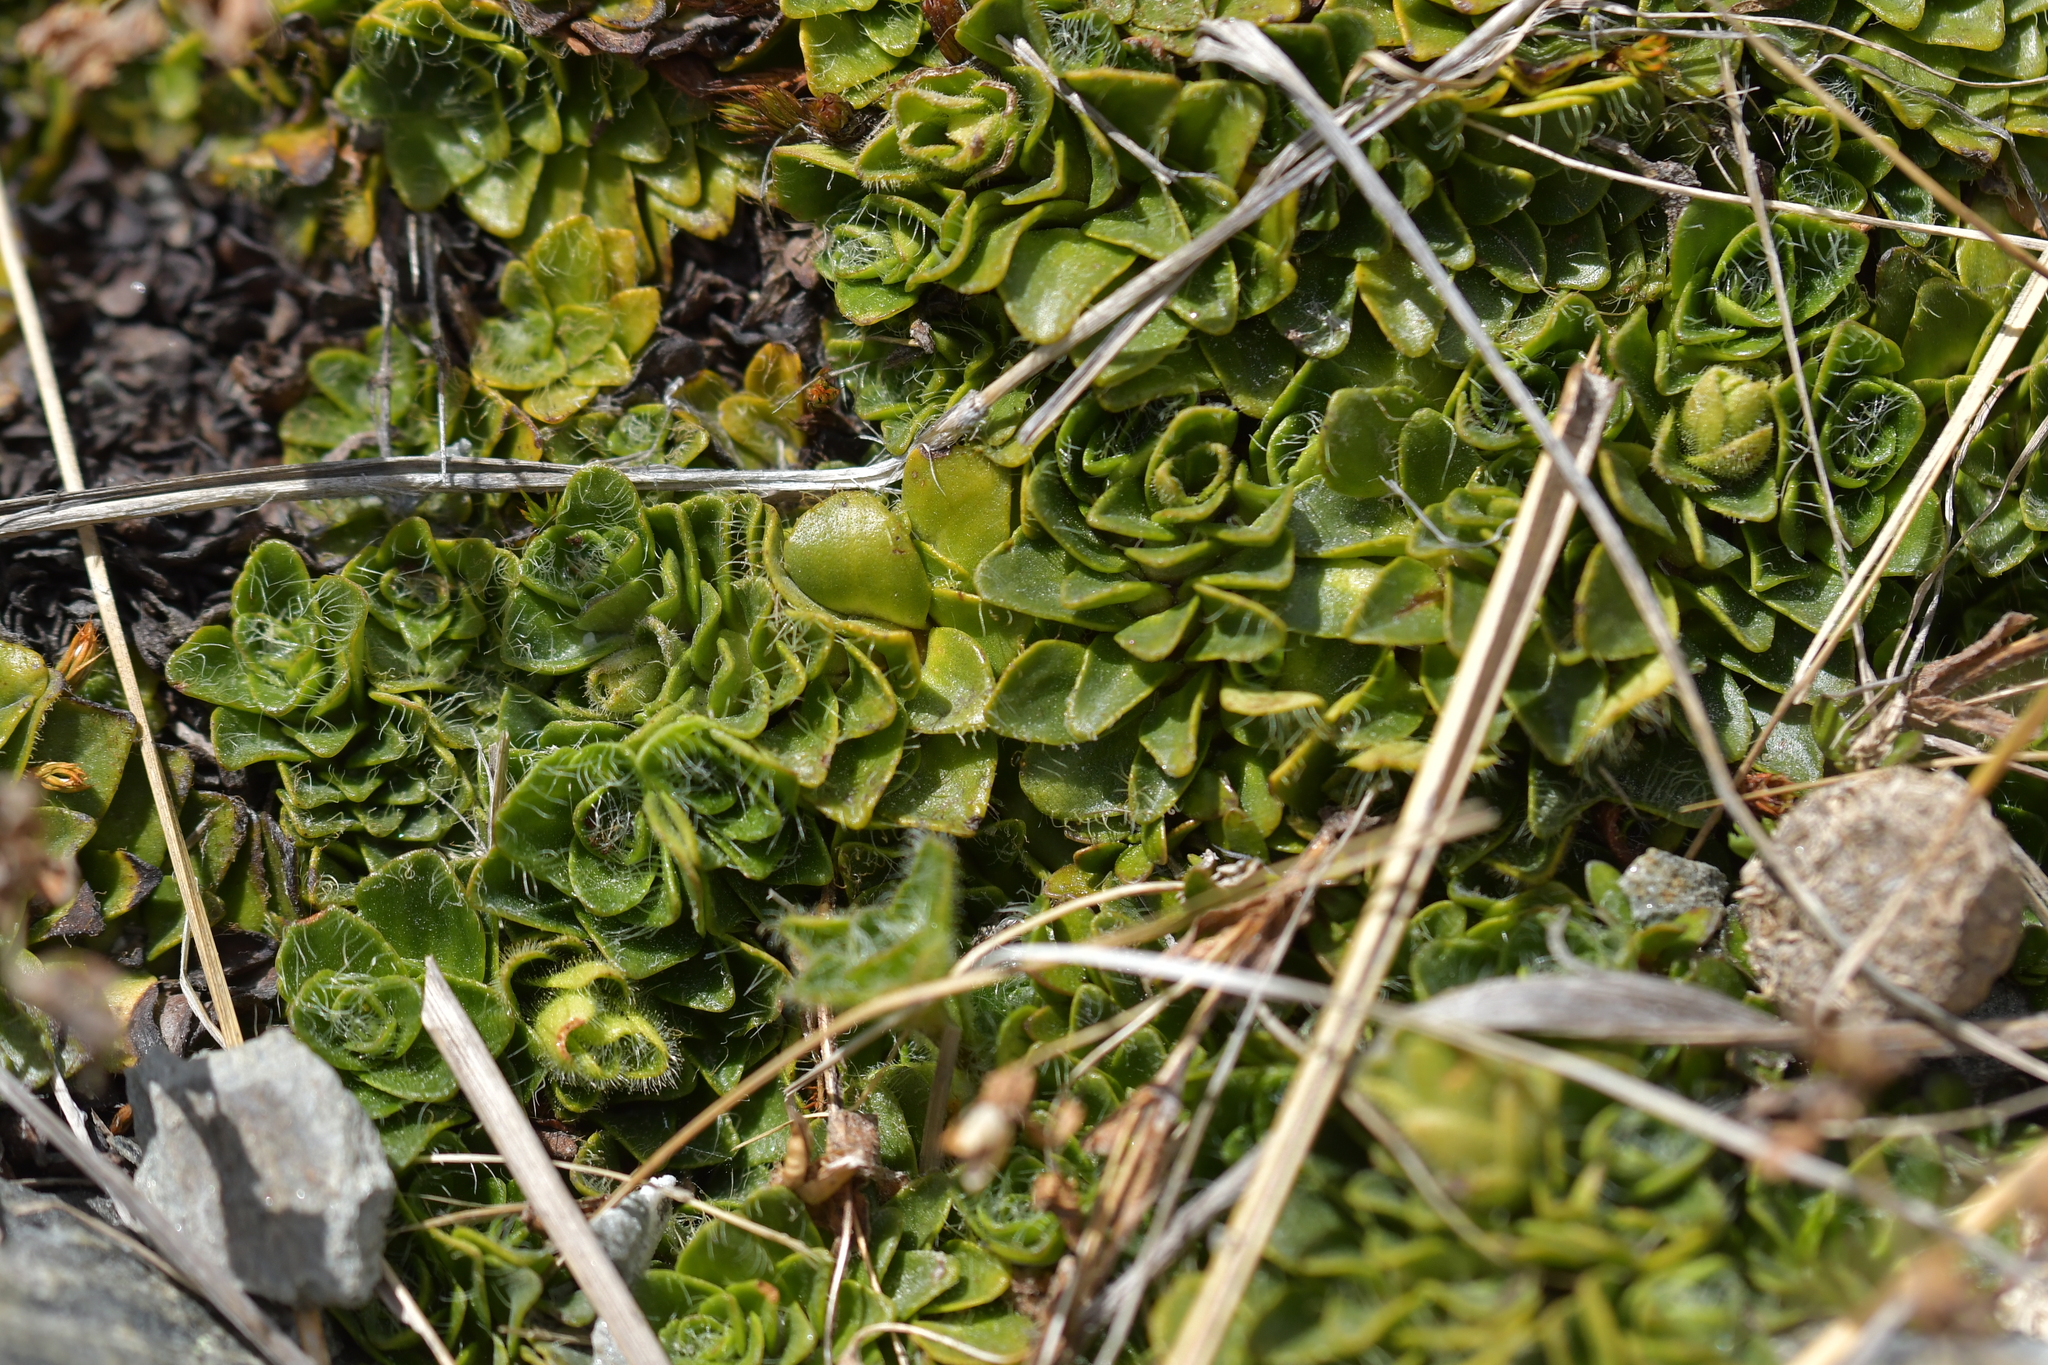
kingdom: Plantae
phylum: Tracheophyta
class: Magnoliopsida
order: Lamiales
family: Plantaginaceae
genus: Ourisia
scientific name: Ourisia glandulosa
